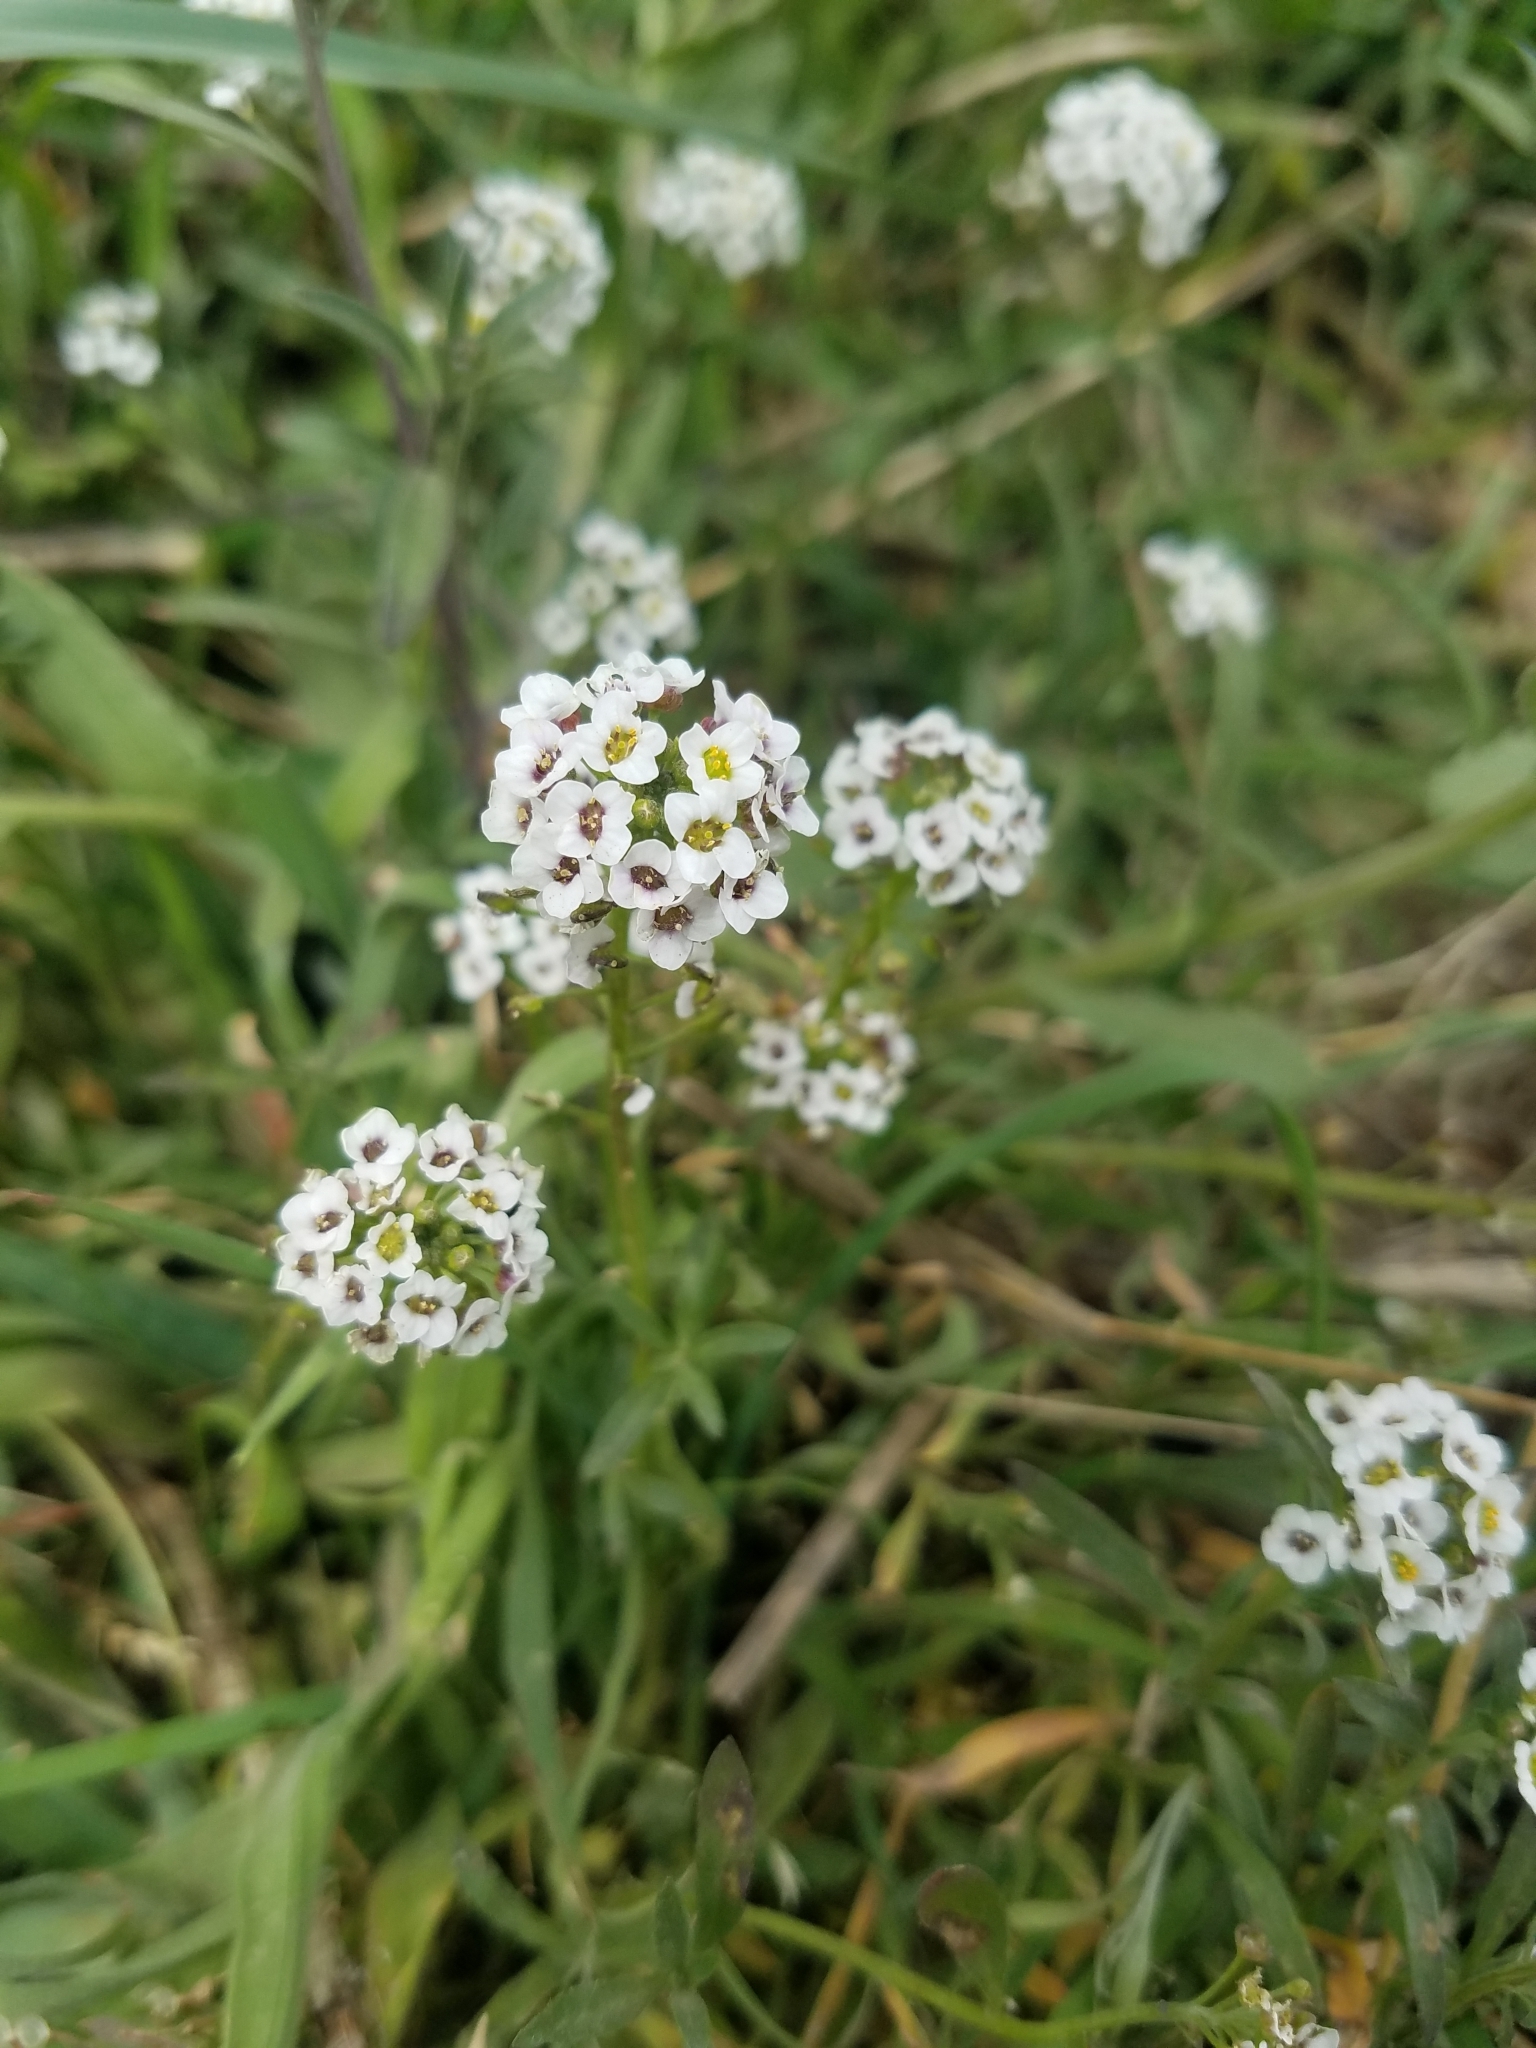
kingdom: Plantae
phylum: Tracheophyta
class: Magnoliopsida
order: Brassicales
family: Brassicaceae
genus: Lobularia
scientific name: Lobularia maritima
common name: Sweet alison
